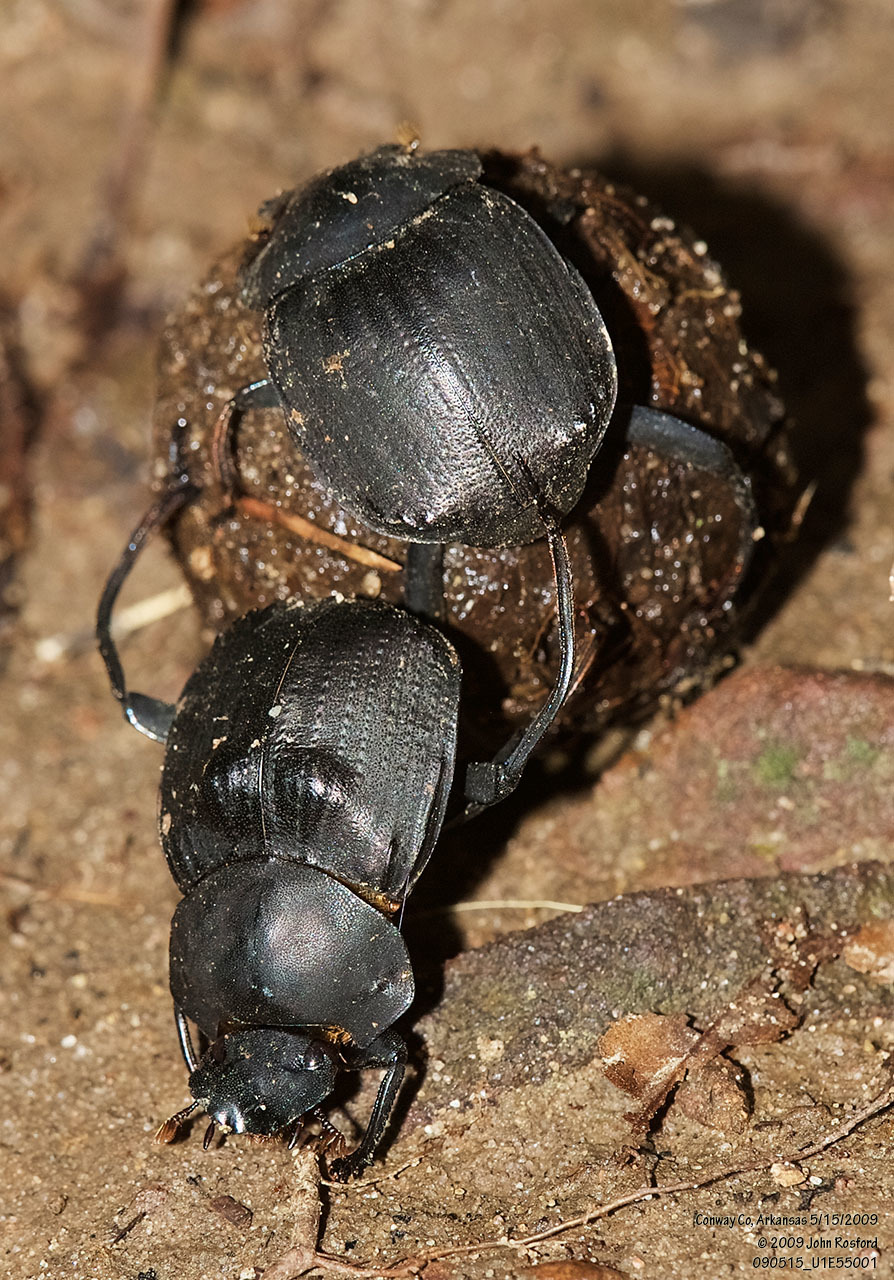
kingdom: Animalia
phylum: Arthropoda
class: Insecta
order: Coleoptera
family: Scarabaeidae
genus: Deltochilum
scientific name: Deltochilum gibbosum
